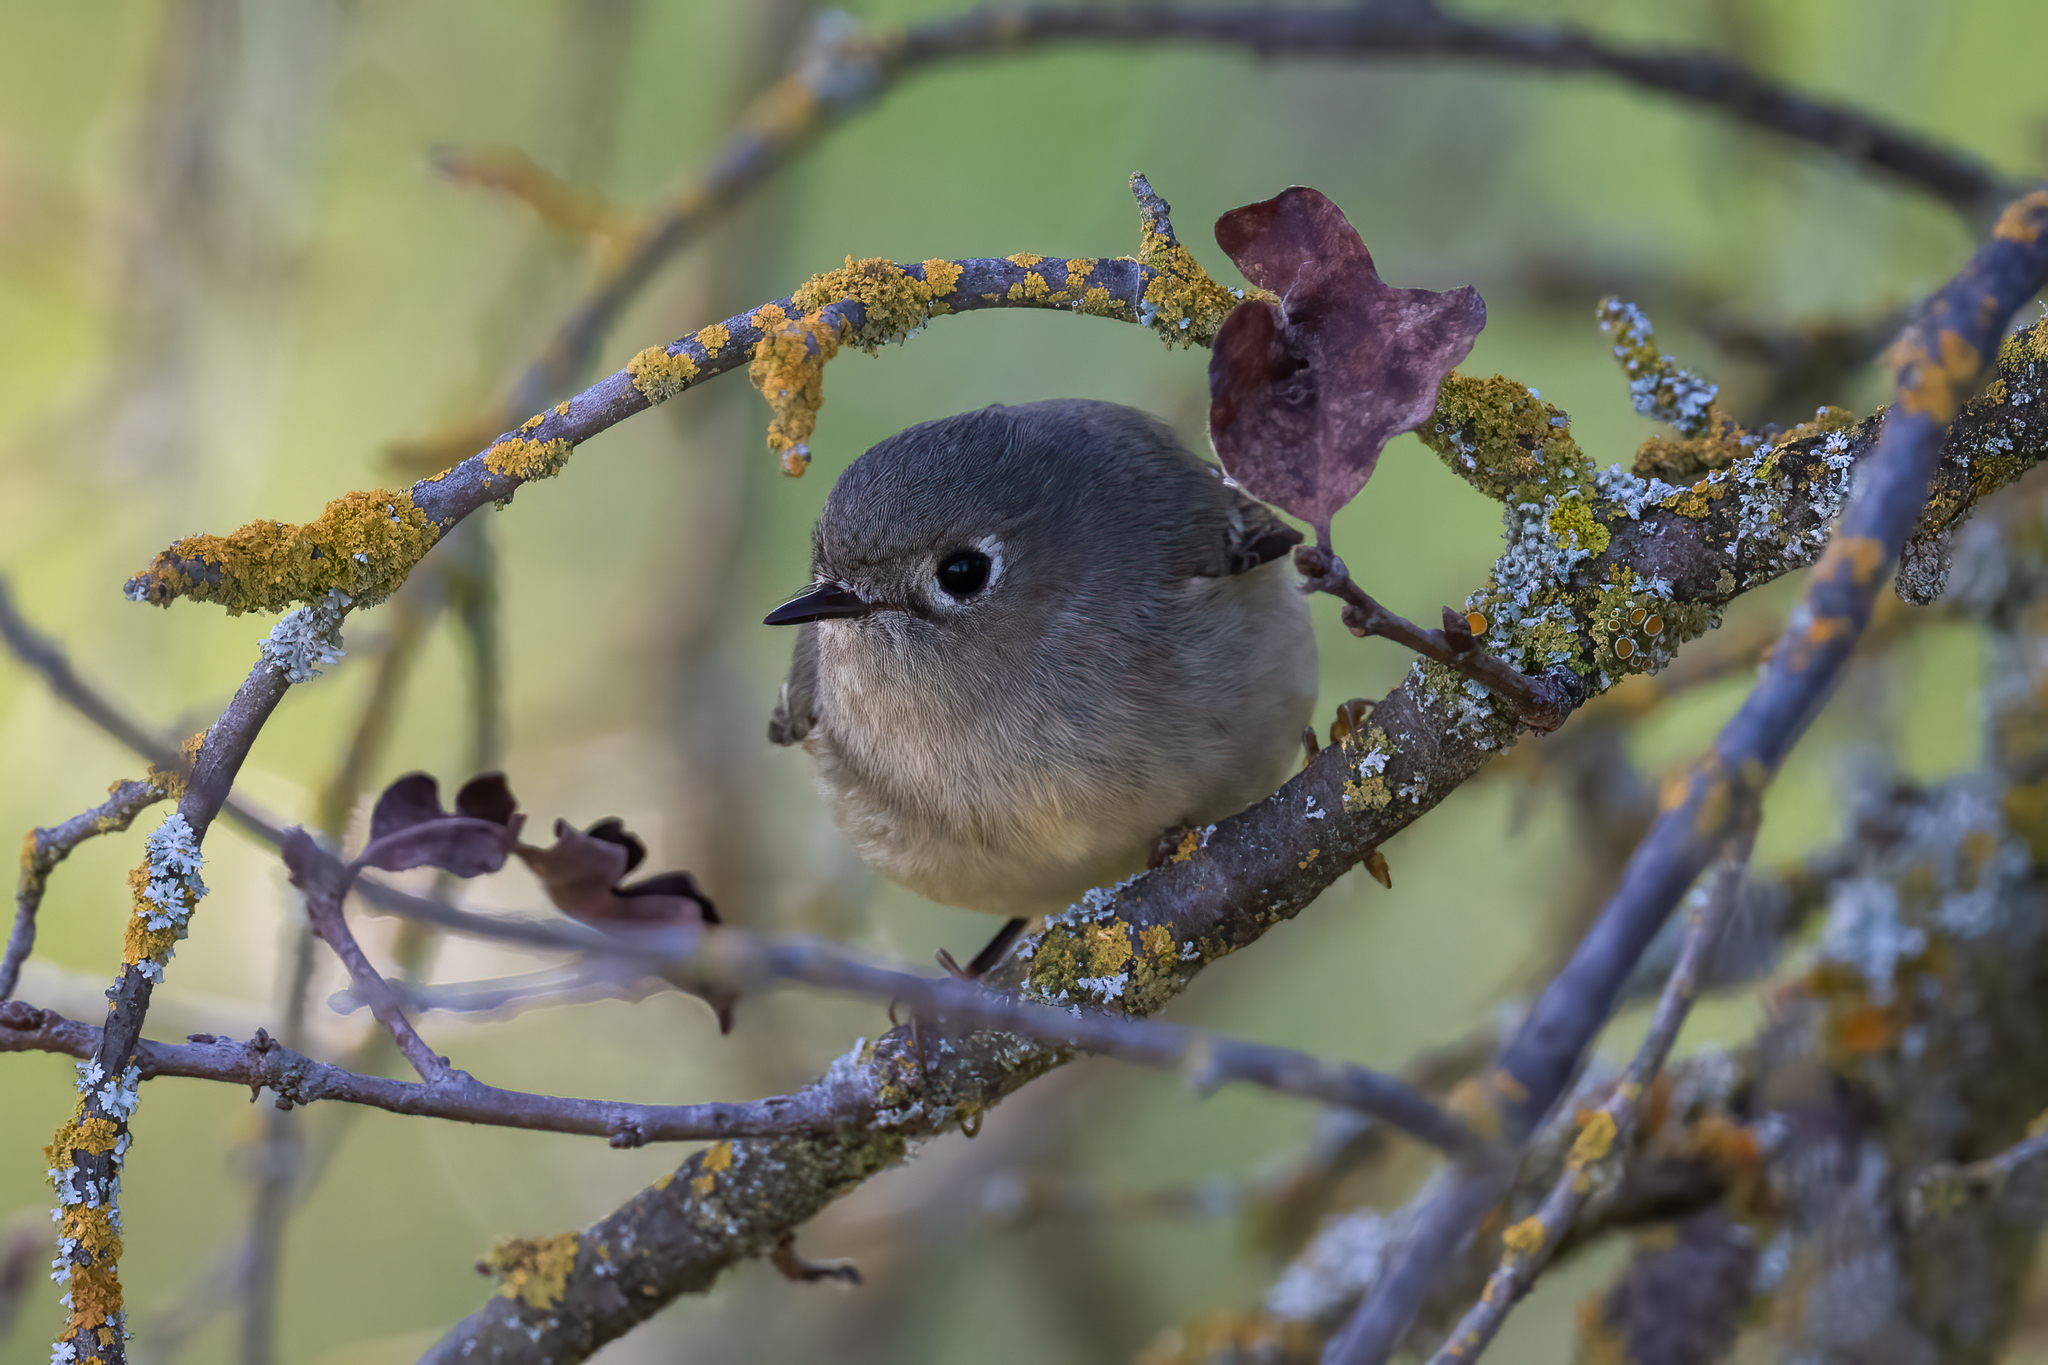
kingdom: Animalia
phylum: Chordata
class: Aves
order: Passeriformes
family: Regulidae
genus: Regulus
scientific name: Regulus calendula
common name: Ruby-crowned kinglet
